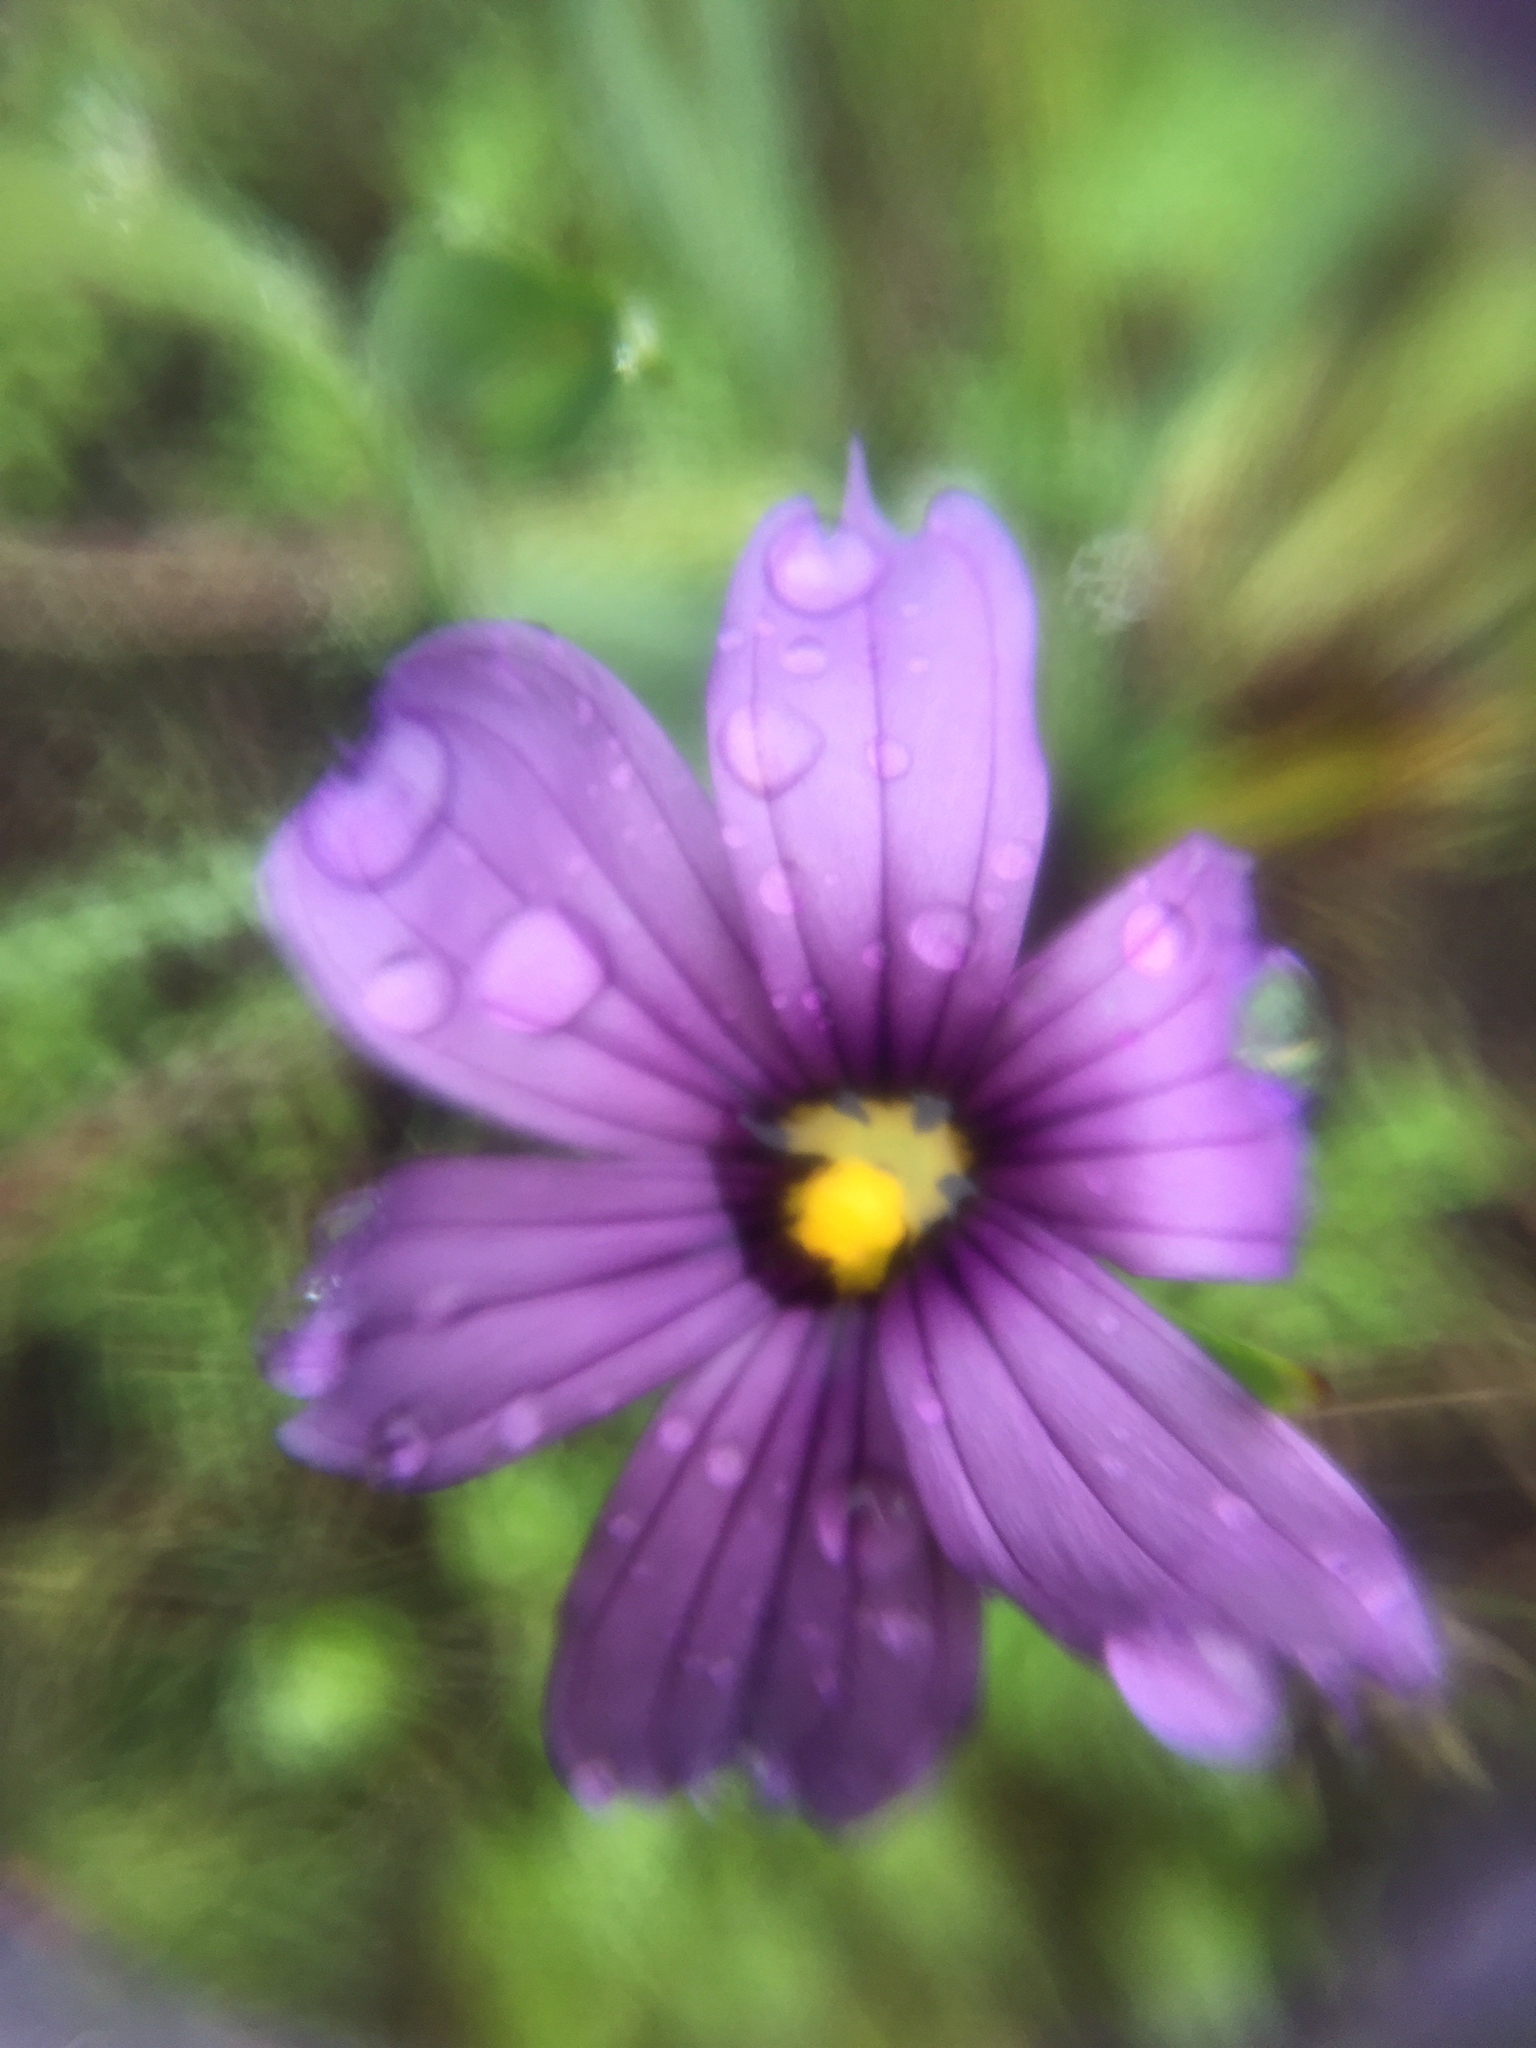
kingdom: Plantae
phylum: Tracheophyta
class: Liliopsida
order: Asparagales
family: Iridaceae
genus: Sisyrinchium
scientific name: Sisyrinchium bellum
